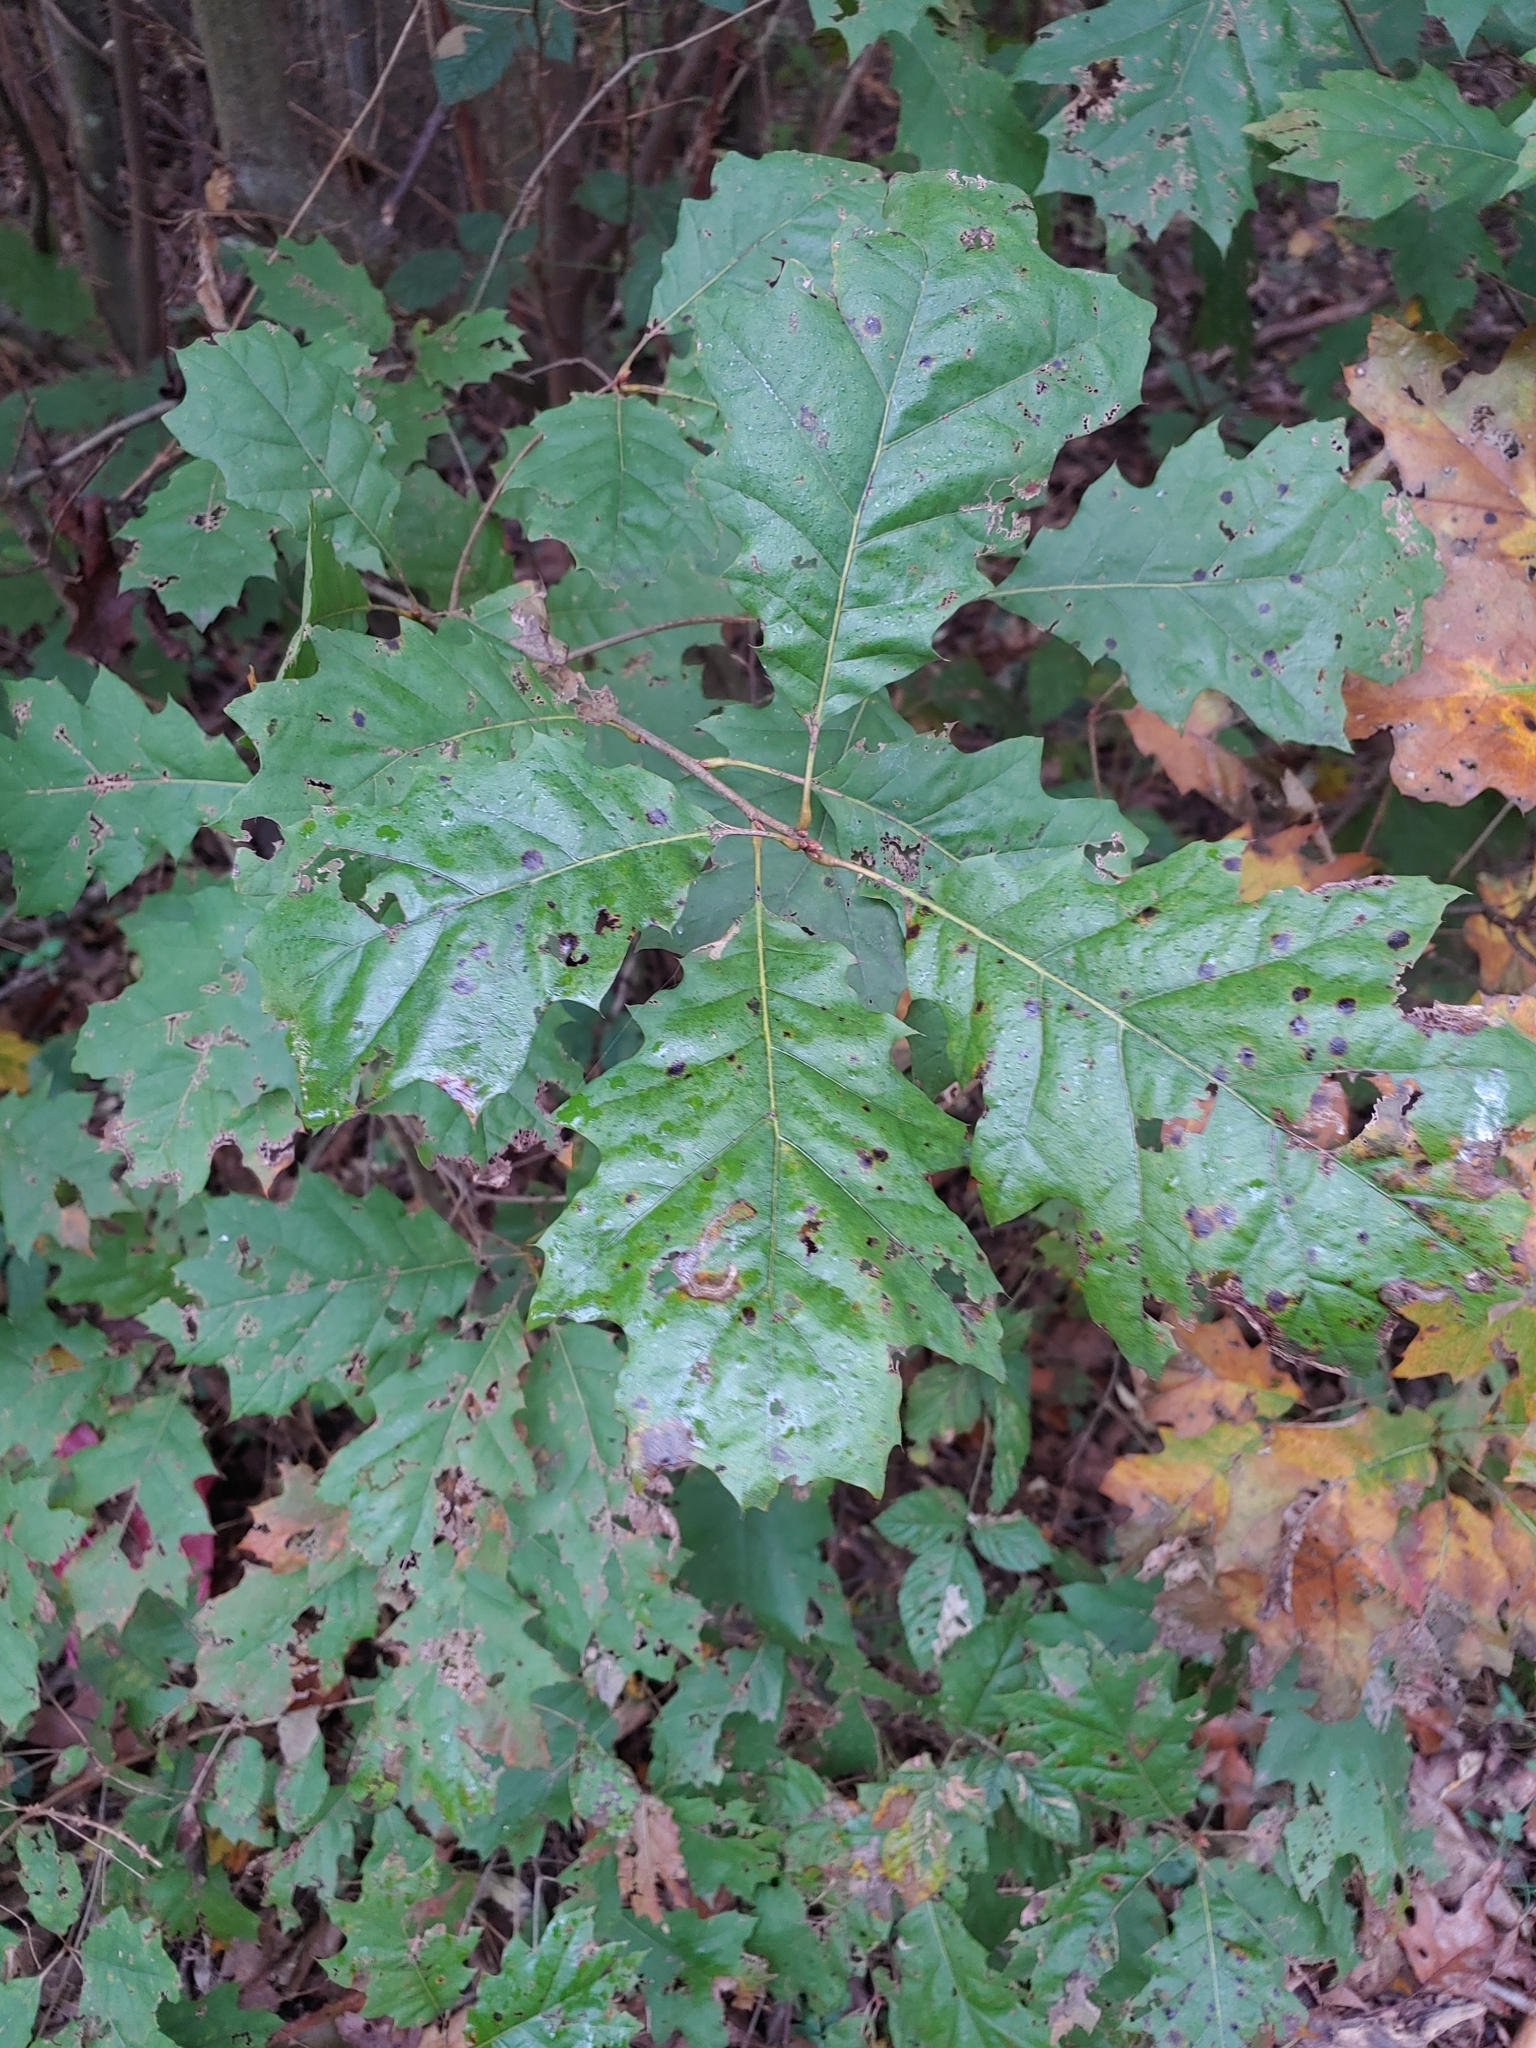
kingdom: Plantae
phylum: Tracheophyta
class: Magnoliopsida
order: Fagales
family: Fagaceae
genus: Quercus
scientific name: Quercus rubra
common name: Red oak
